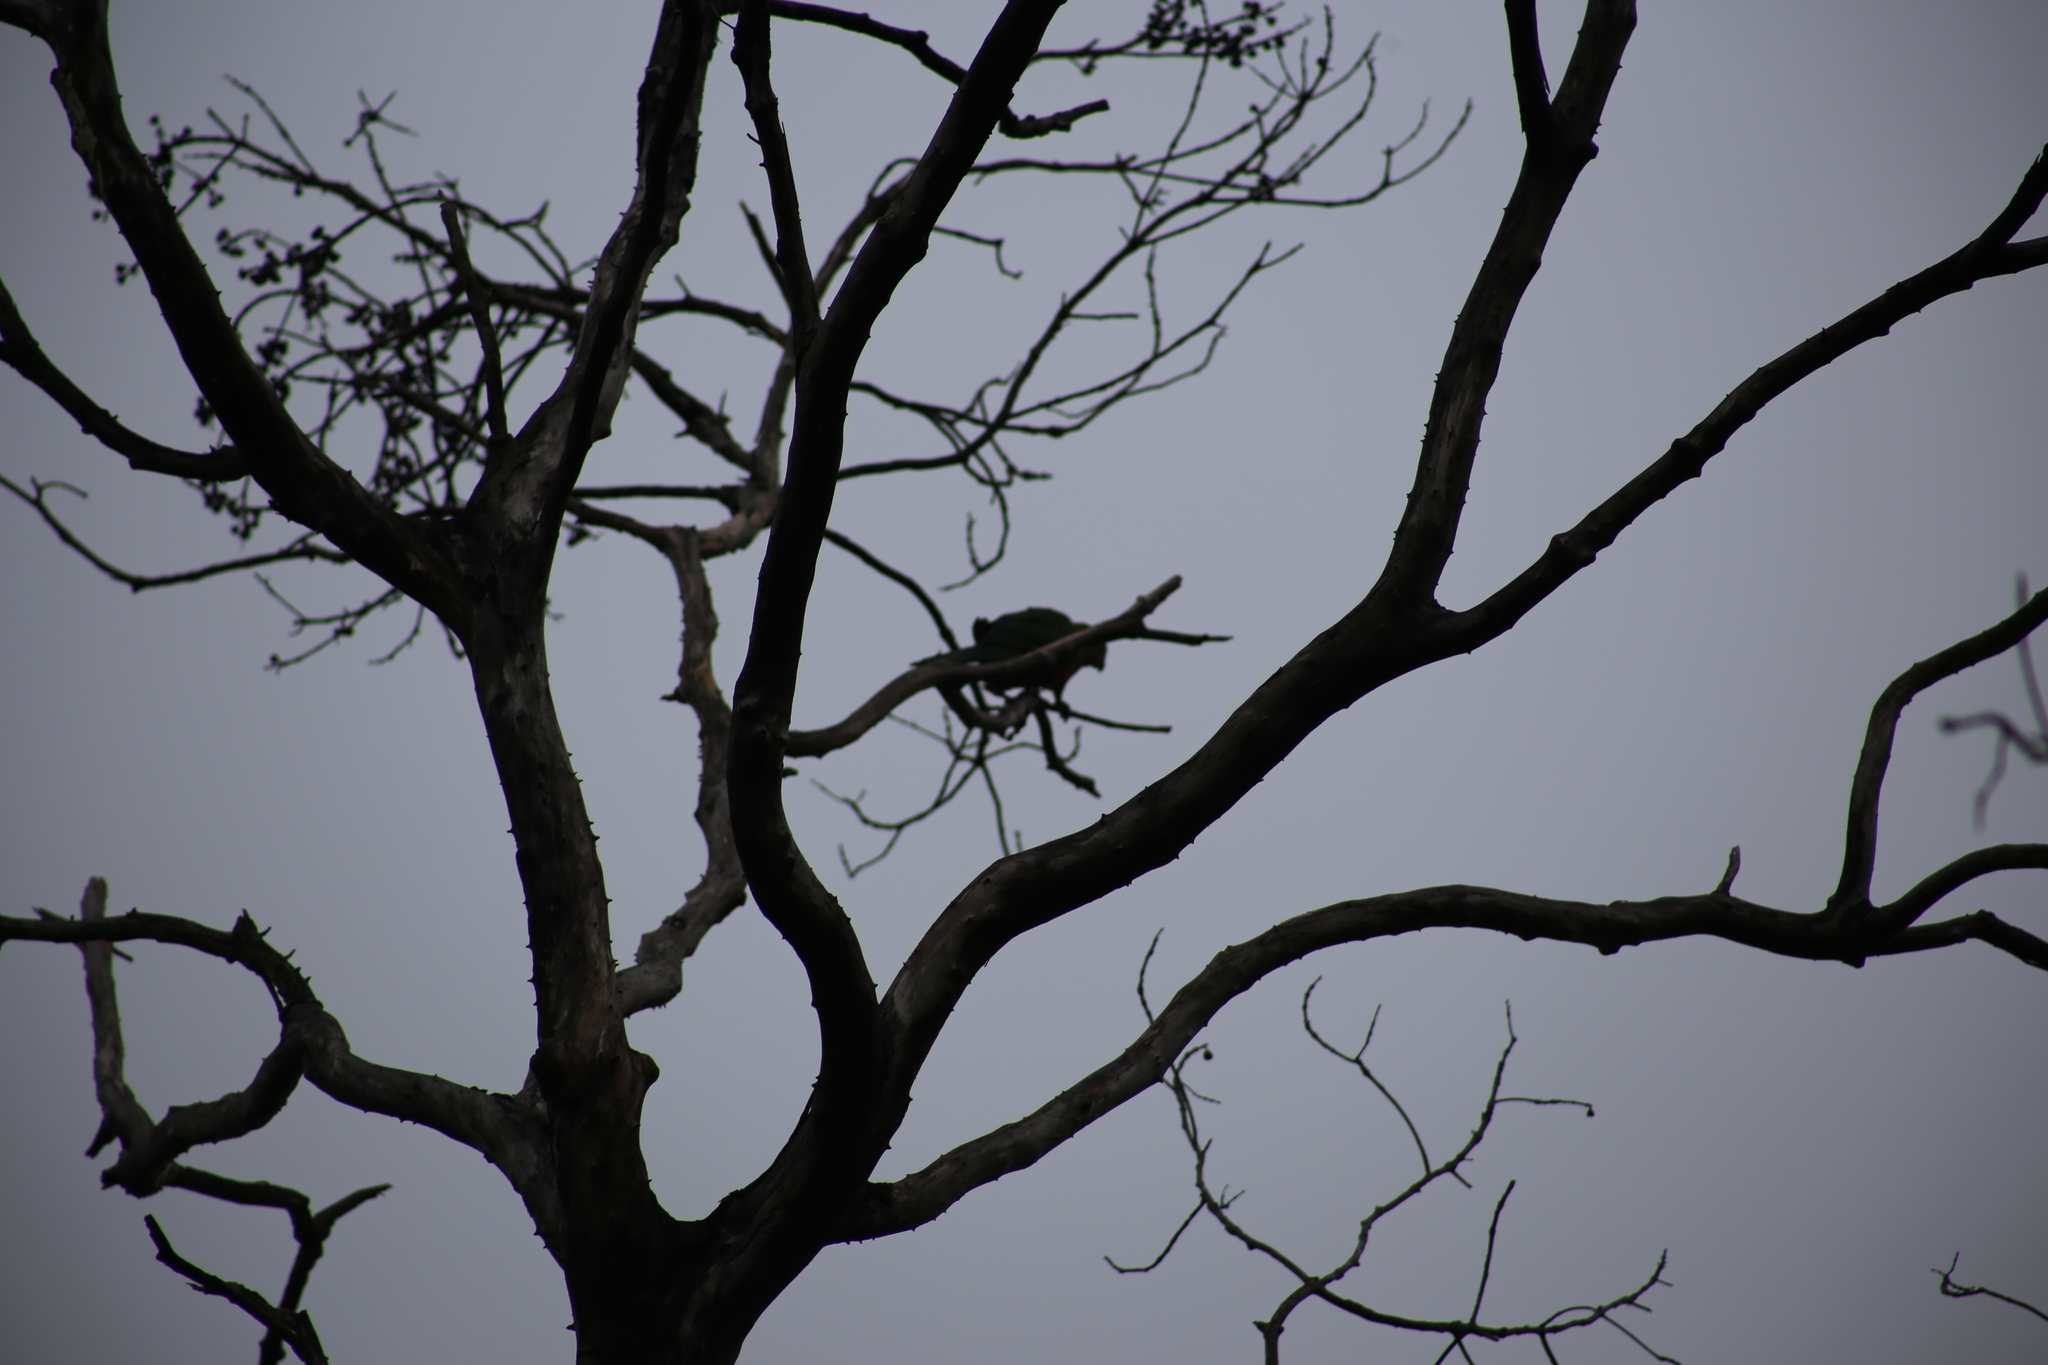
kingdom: Animalia
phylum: Chordata
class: Aves
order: Psittaciformes
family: Psittacidae
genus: Alisterus
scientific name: Alisterus scapularis
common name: Australian king parrot
